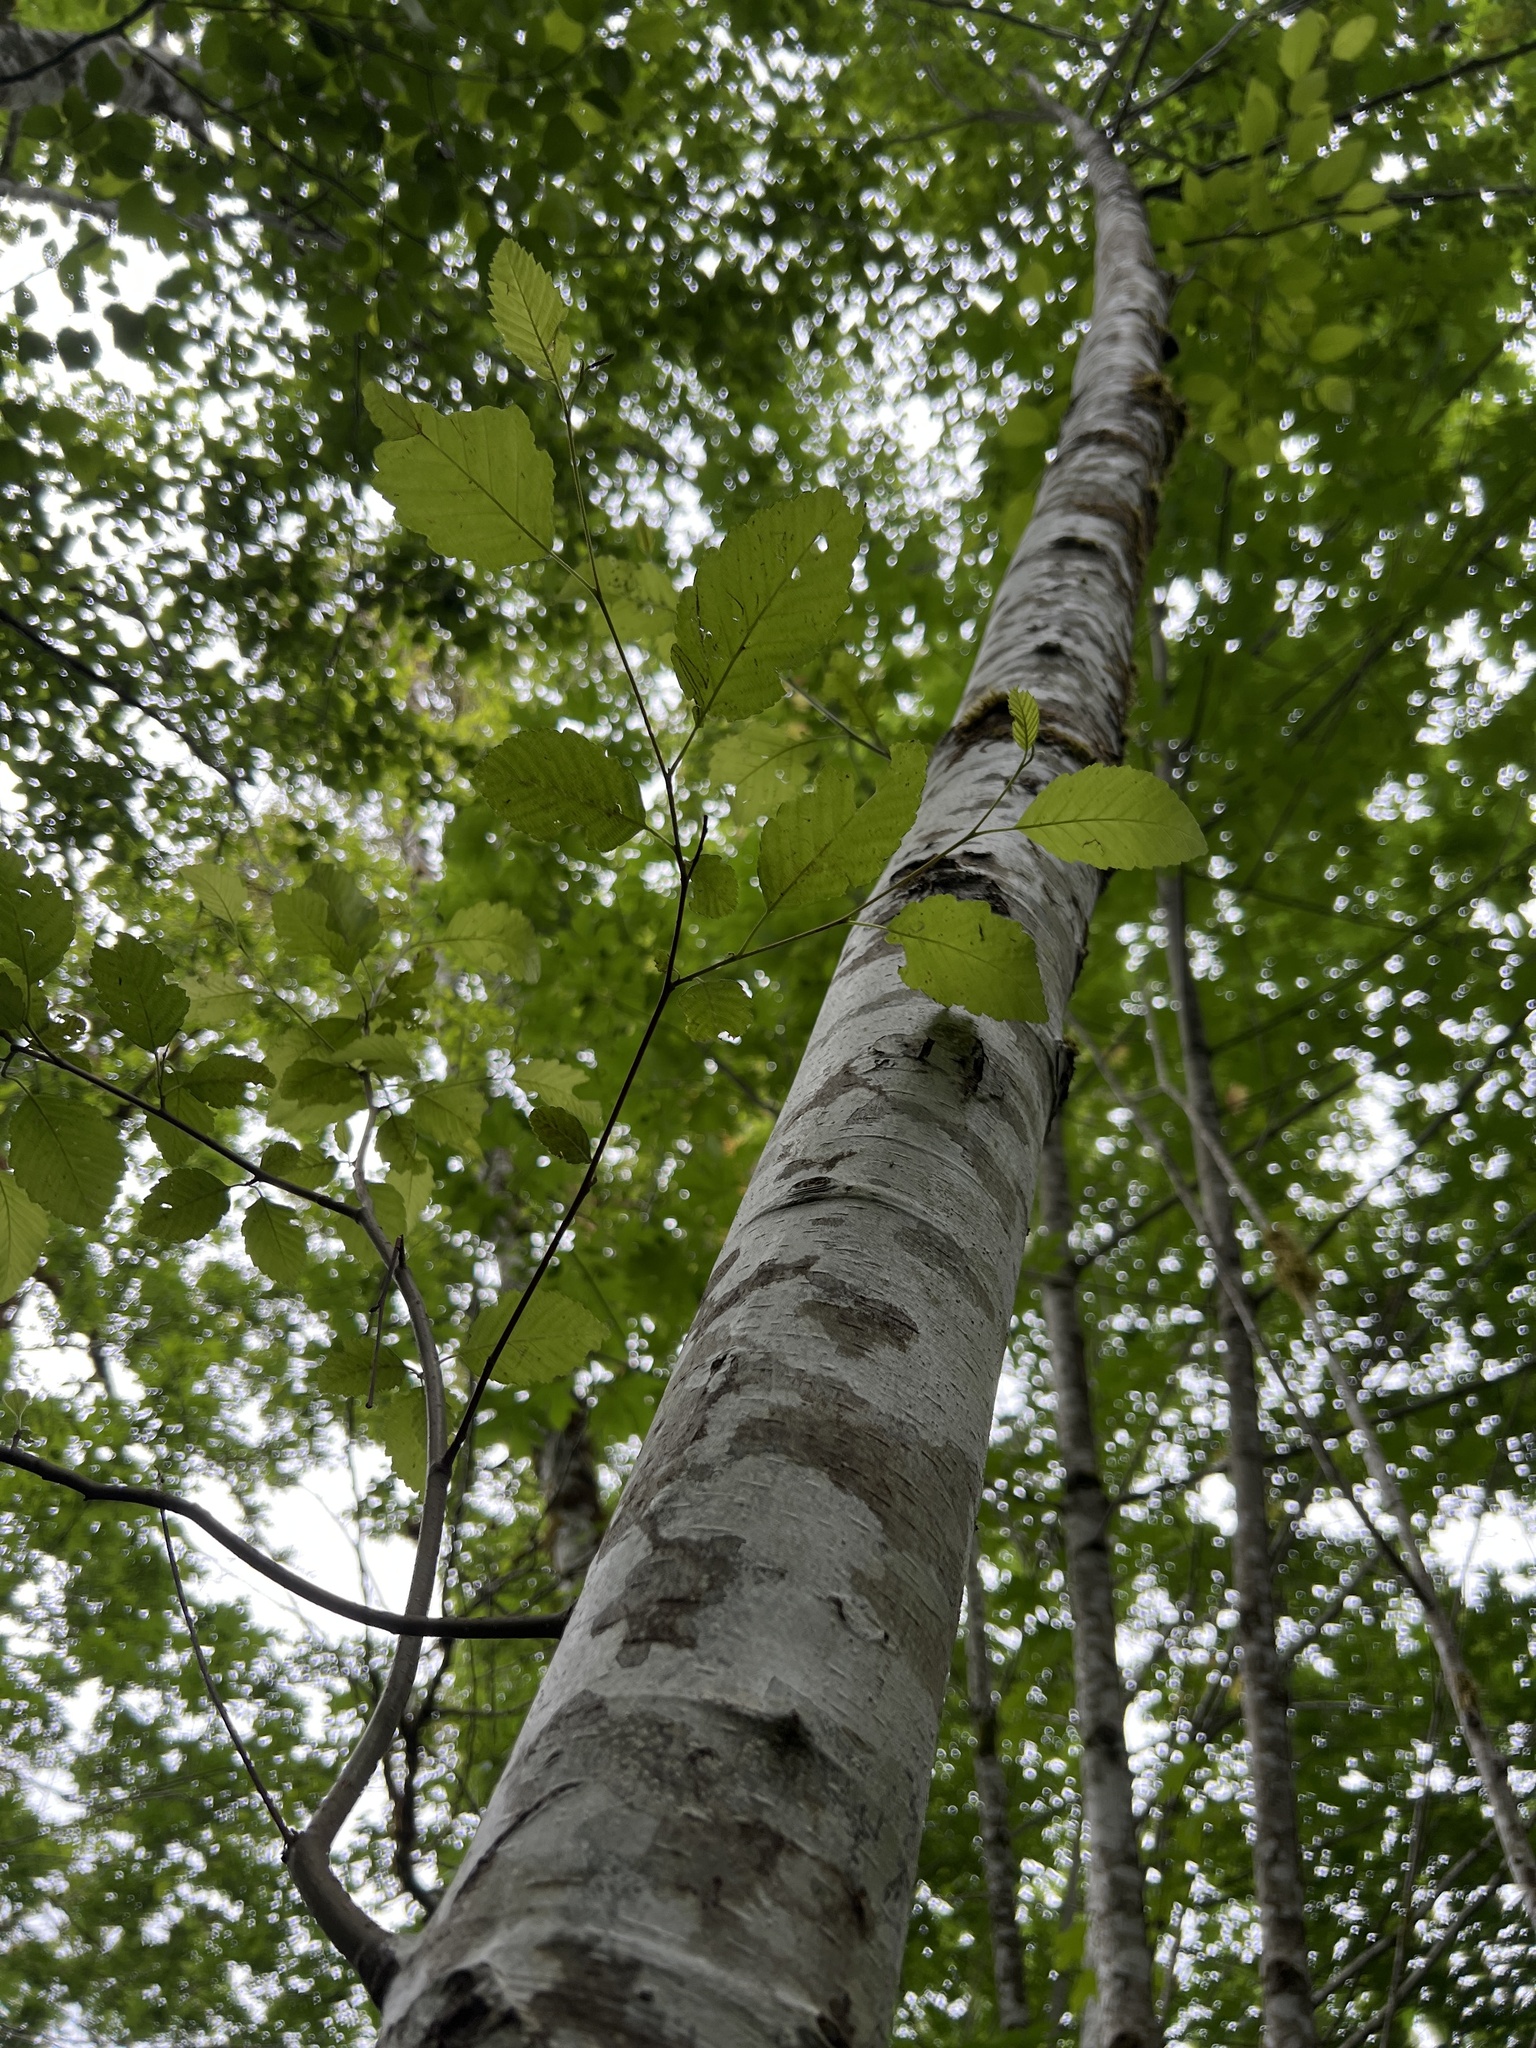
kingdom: Plantae
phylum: Tracheophyta
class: Magnoliopsida
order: Fagales
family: Betulaceae
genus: Alnus
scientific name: Alnus rubra
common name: Red alder
